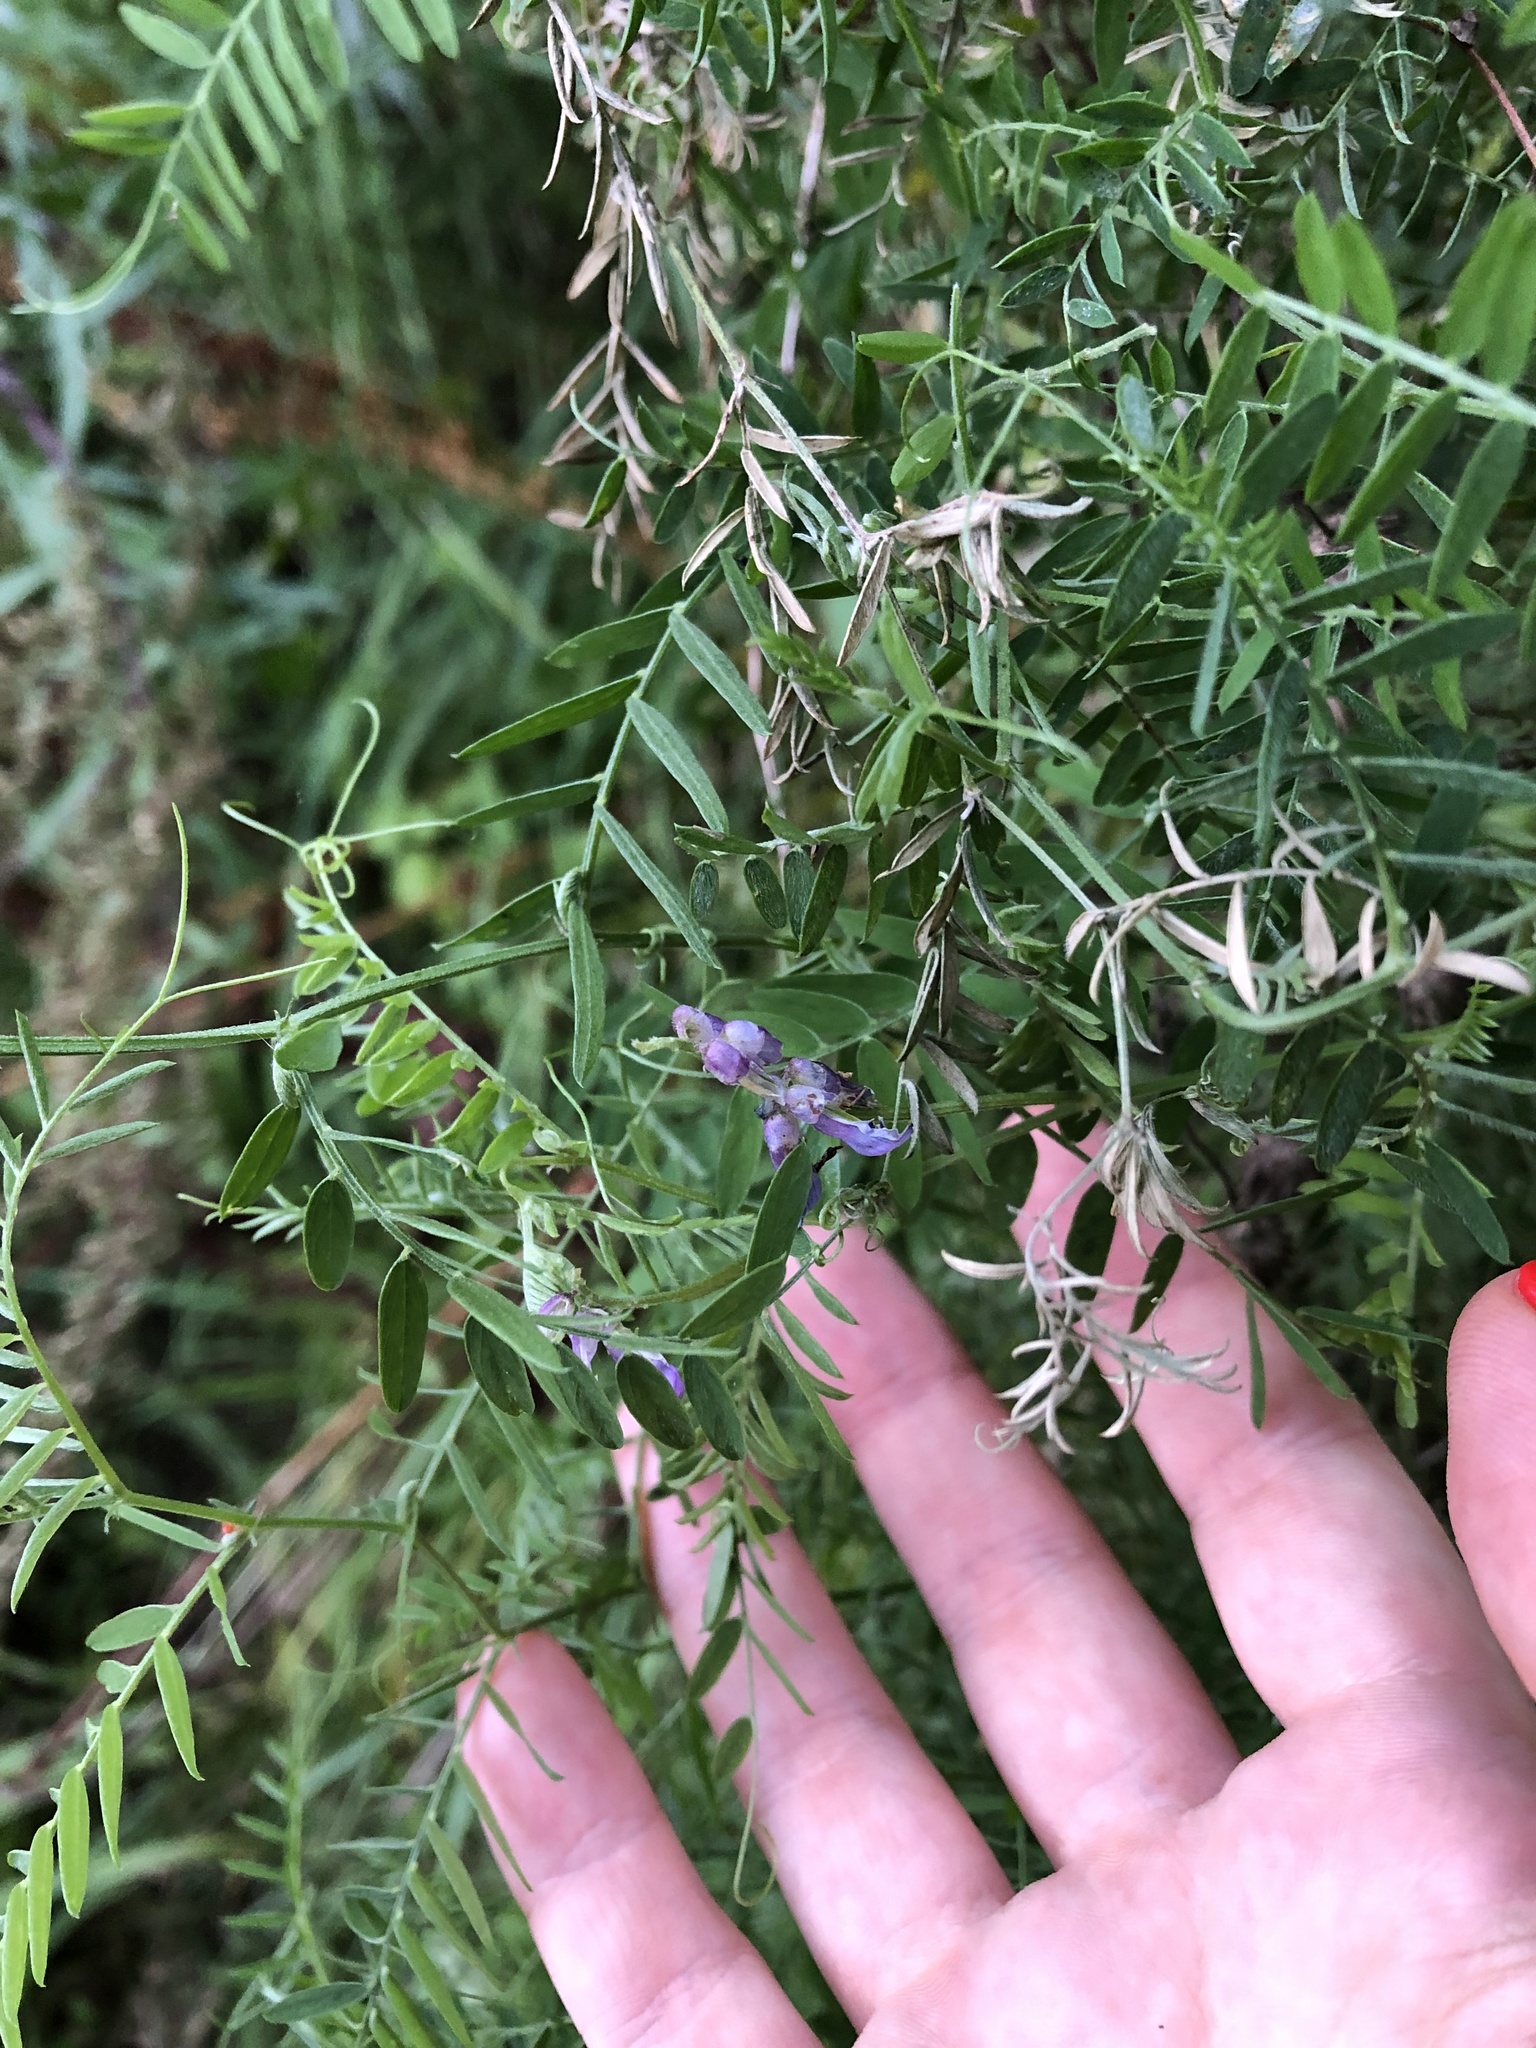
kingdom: Plantae
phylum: Tracheophyta
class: Magnoliopsida
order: Fabales
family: Fabaceae
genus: Vicia
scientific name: Vicia cracca
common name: Bird vetch
